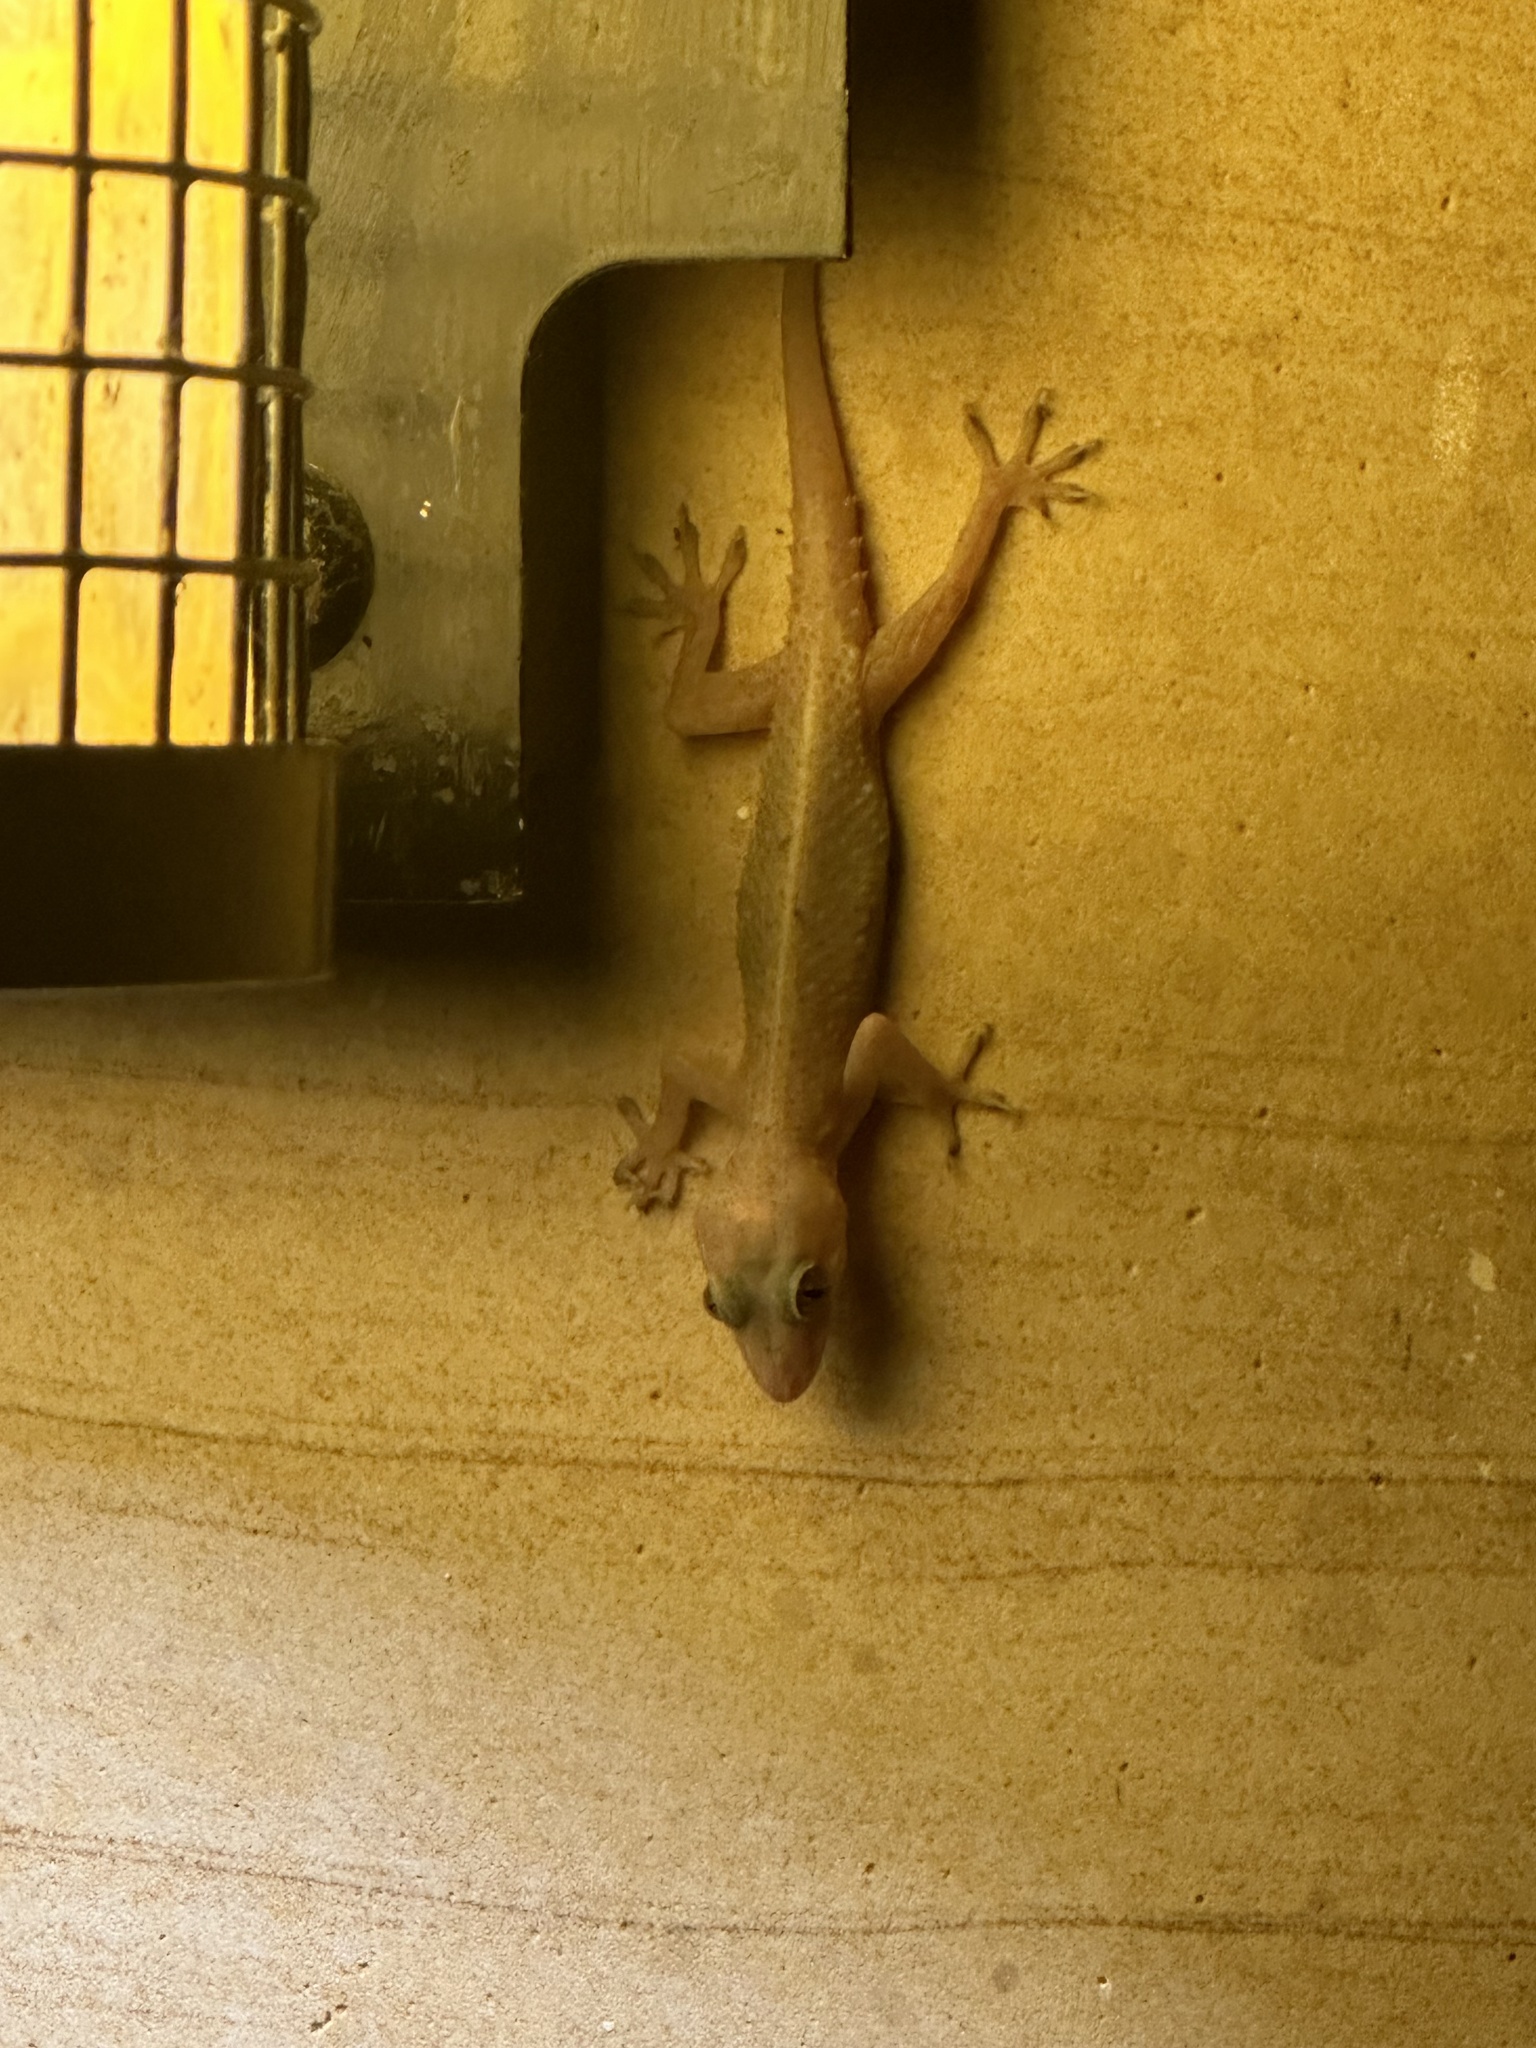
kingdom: Animalia
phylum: Chordata
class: Squamata
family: Gekkonidae
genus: Hemidactylus
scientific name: Hemidactylus murrayi
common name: Murray’s house gecko
